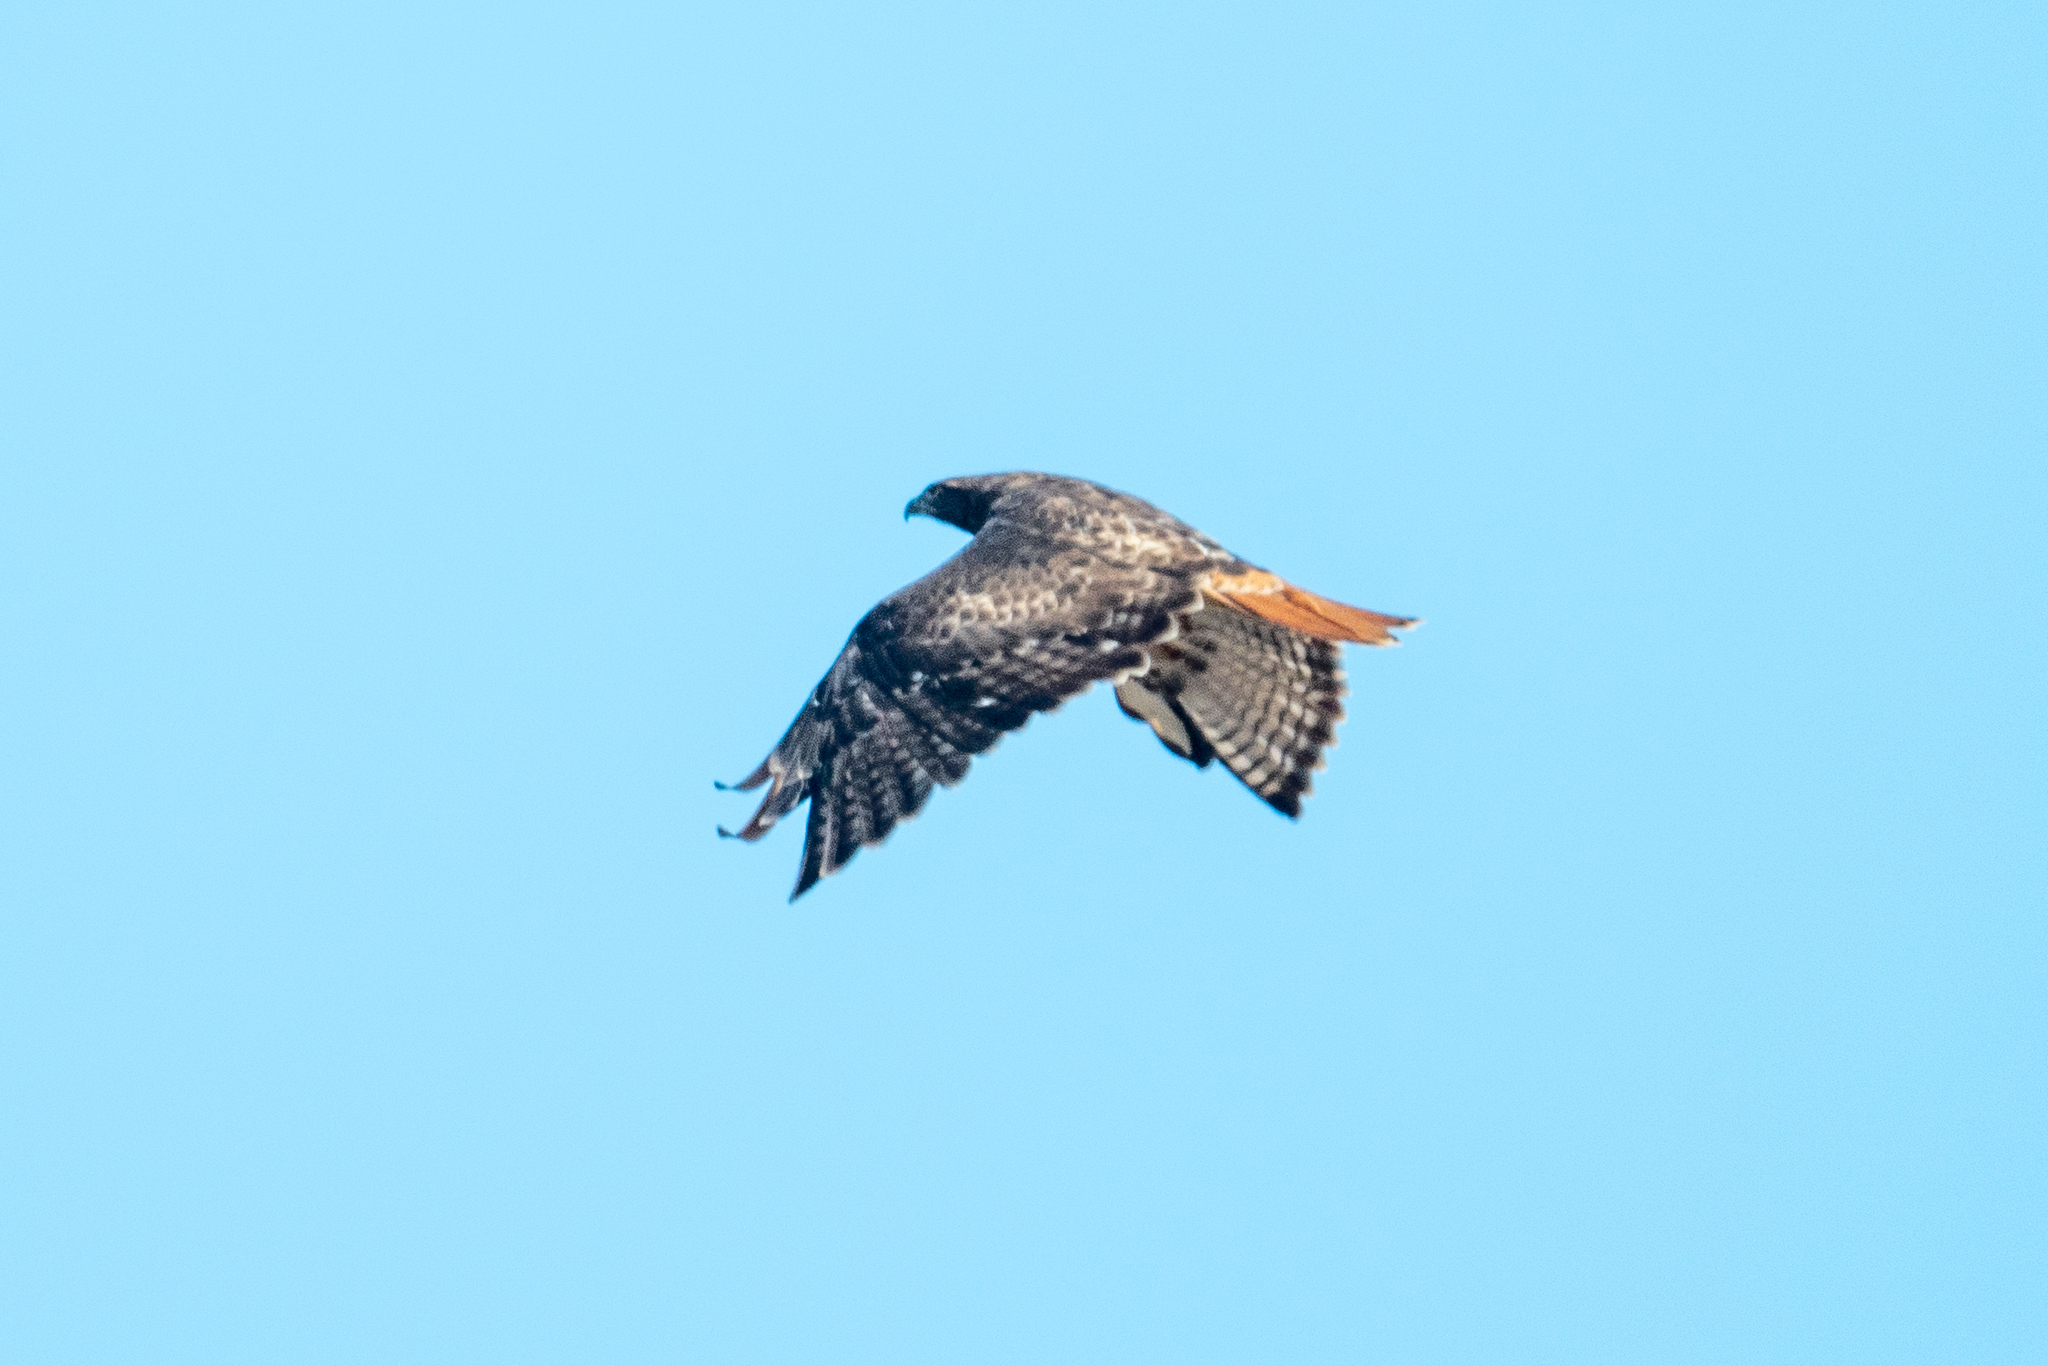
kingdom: Animalia
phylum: Chordata
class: Aves
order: Accipitriformes
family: Accipitridae
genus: Buteo
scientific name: Buteo jamaicensis
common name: Red-tailed hawk
